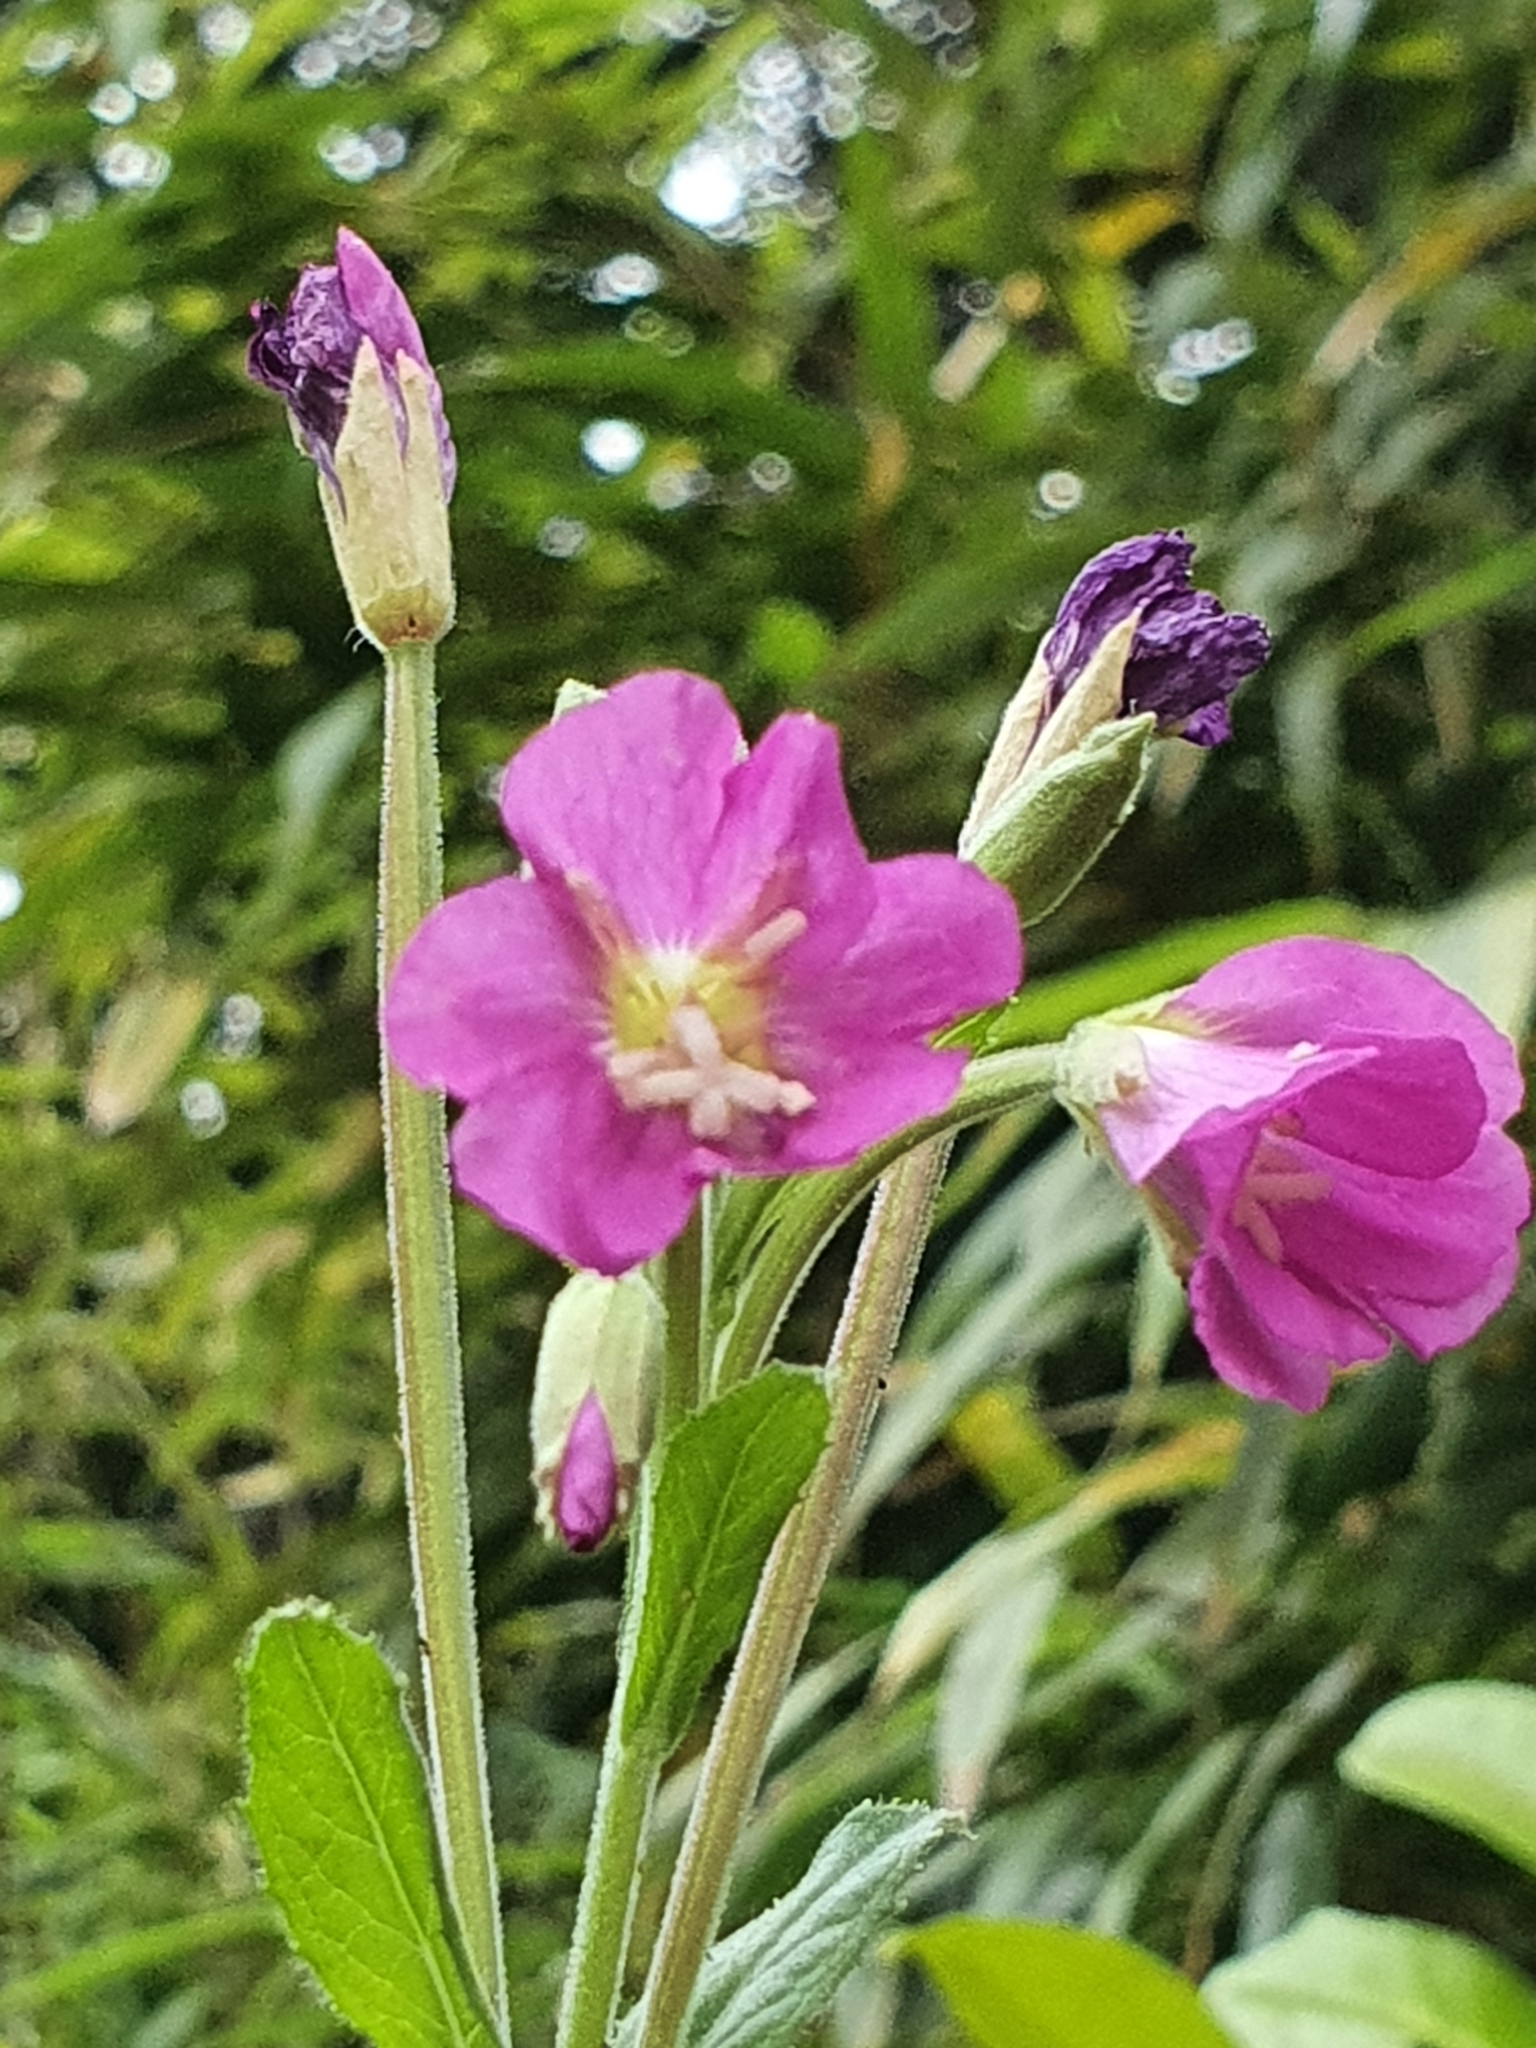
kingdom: Plantae
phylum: Tracheophyta
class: Magnoliopsida
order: Myrtales
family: Onagraceae
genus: Epilobium
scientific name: Epilobium hirsutum
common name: Great willowherb
